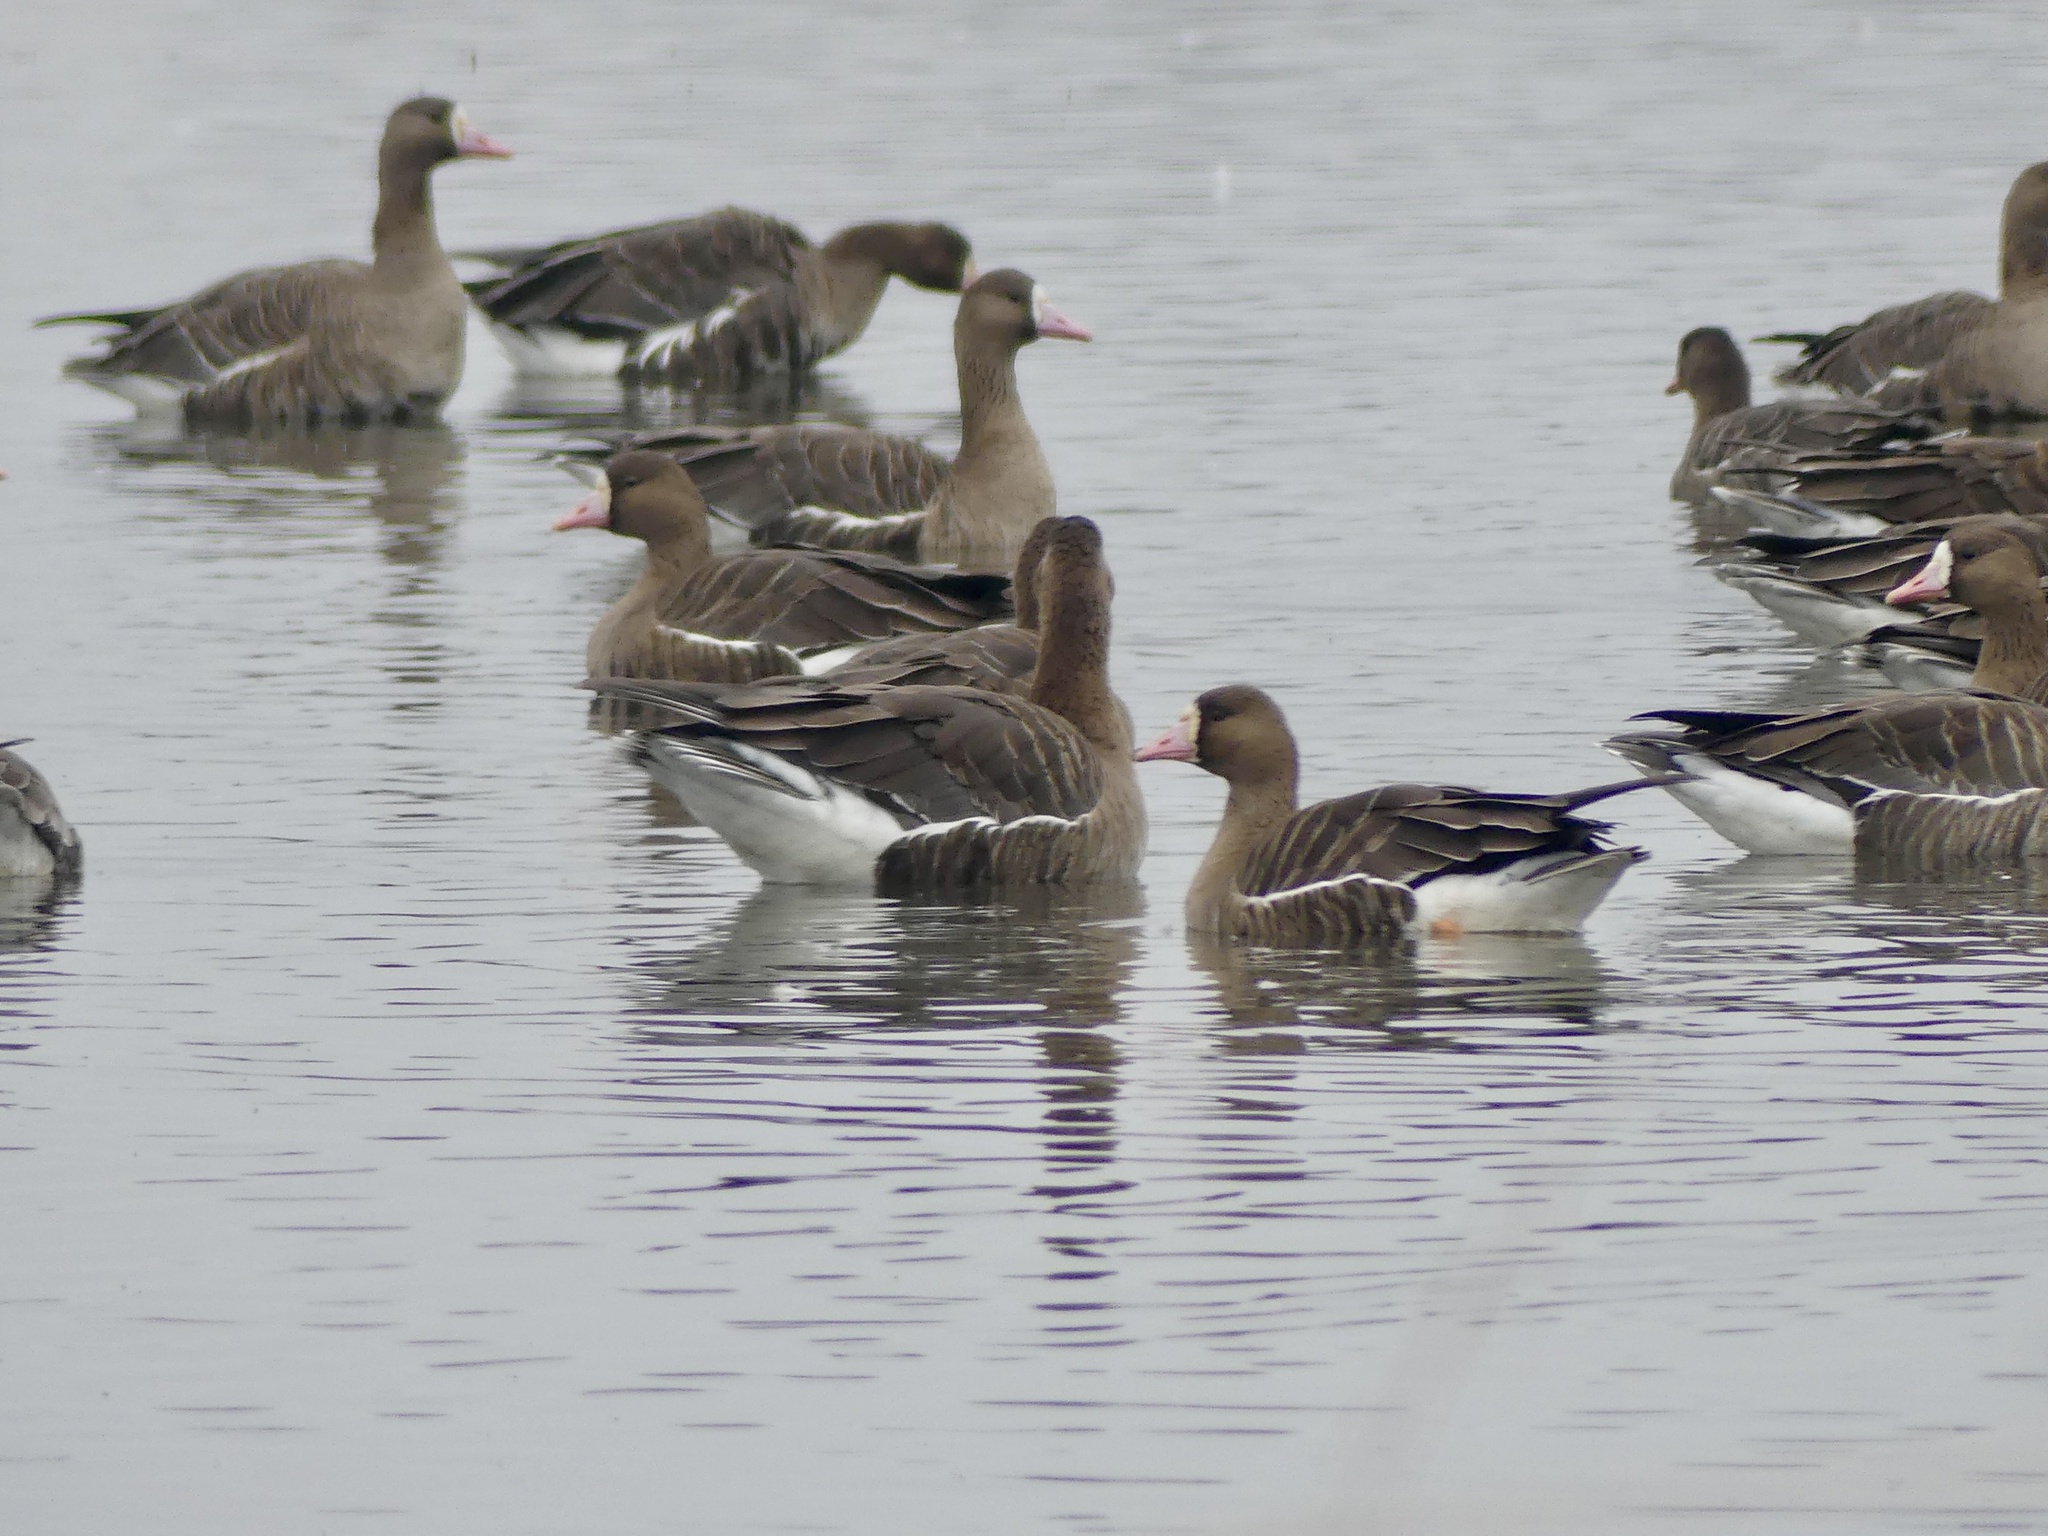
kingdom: Animalia
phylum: Chordata
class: Aves
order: Anseriformes
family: Anatidae
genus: Anser
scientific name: Anser albifrons
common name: Greater white-fronted goose
